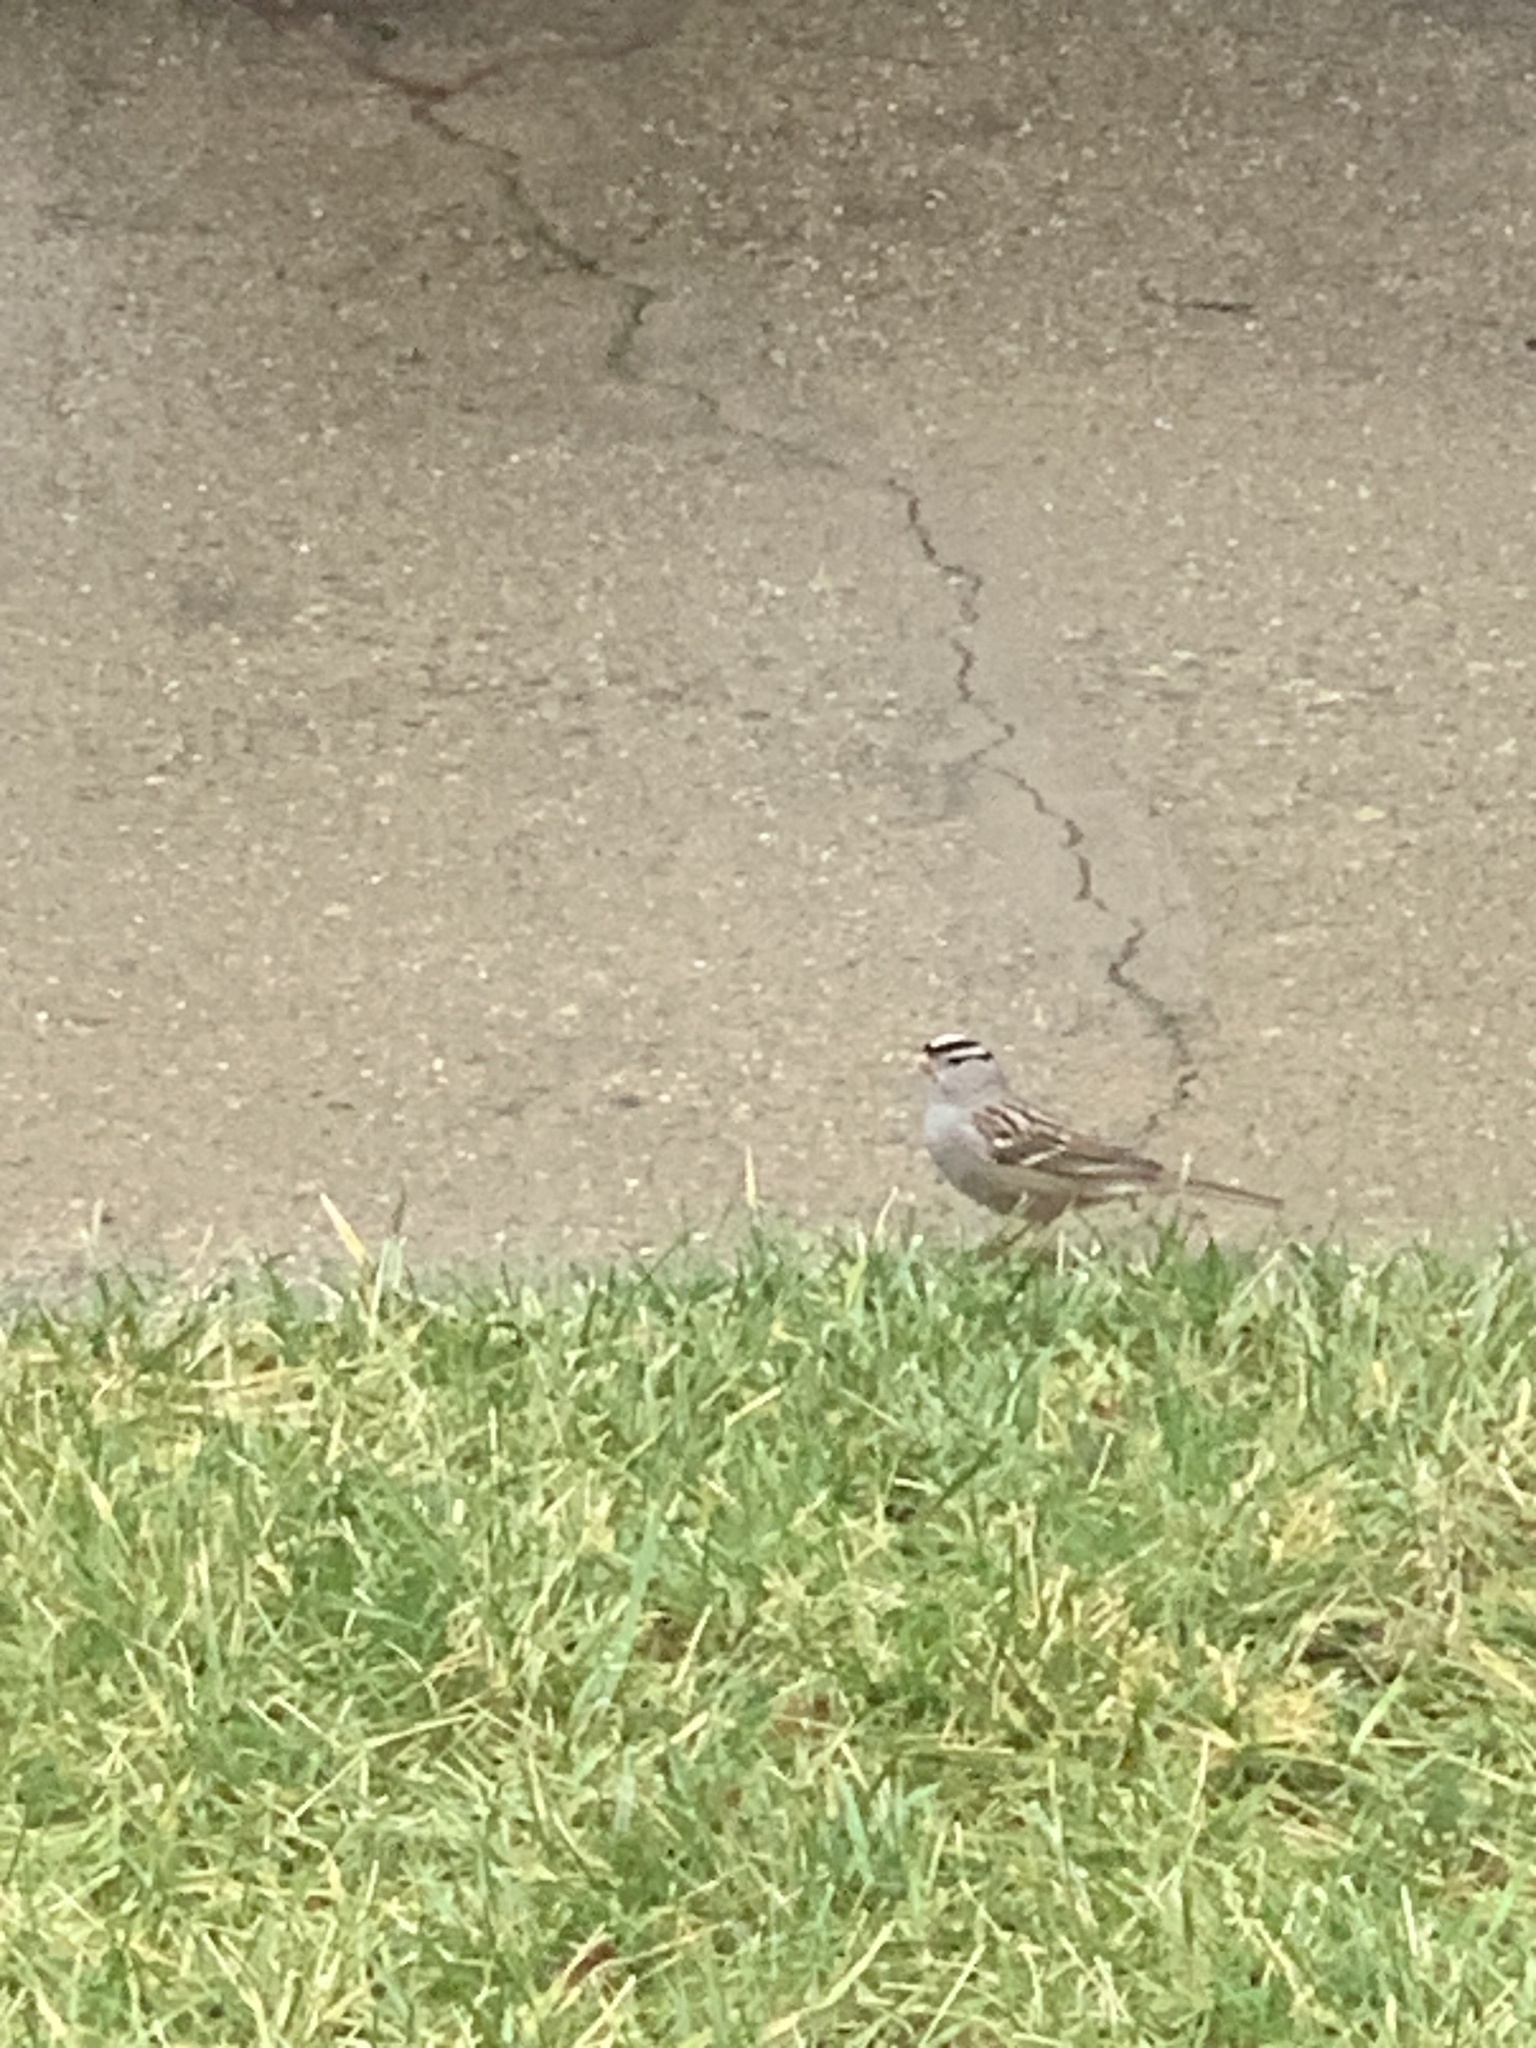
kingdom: Animalia
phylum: Chordata
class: Aves
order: Passeriformes
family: Passerellidae
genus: Zonotrichia
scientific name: Zonotrichia leucophrys
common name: White-crowned sparrow
